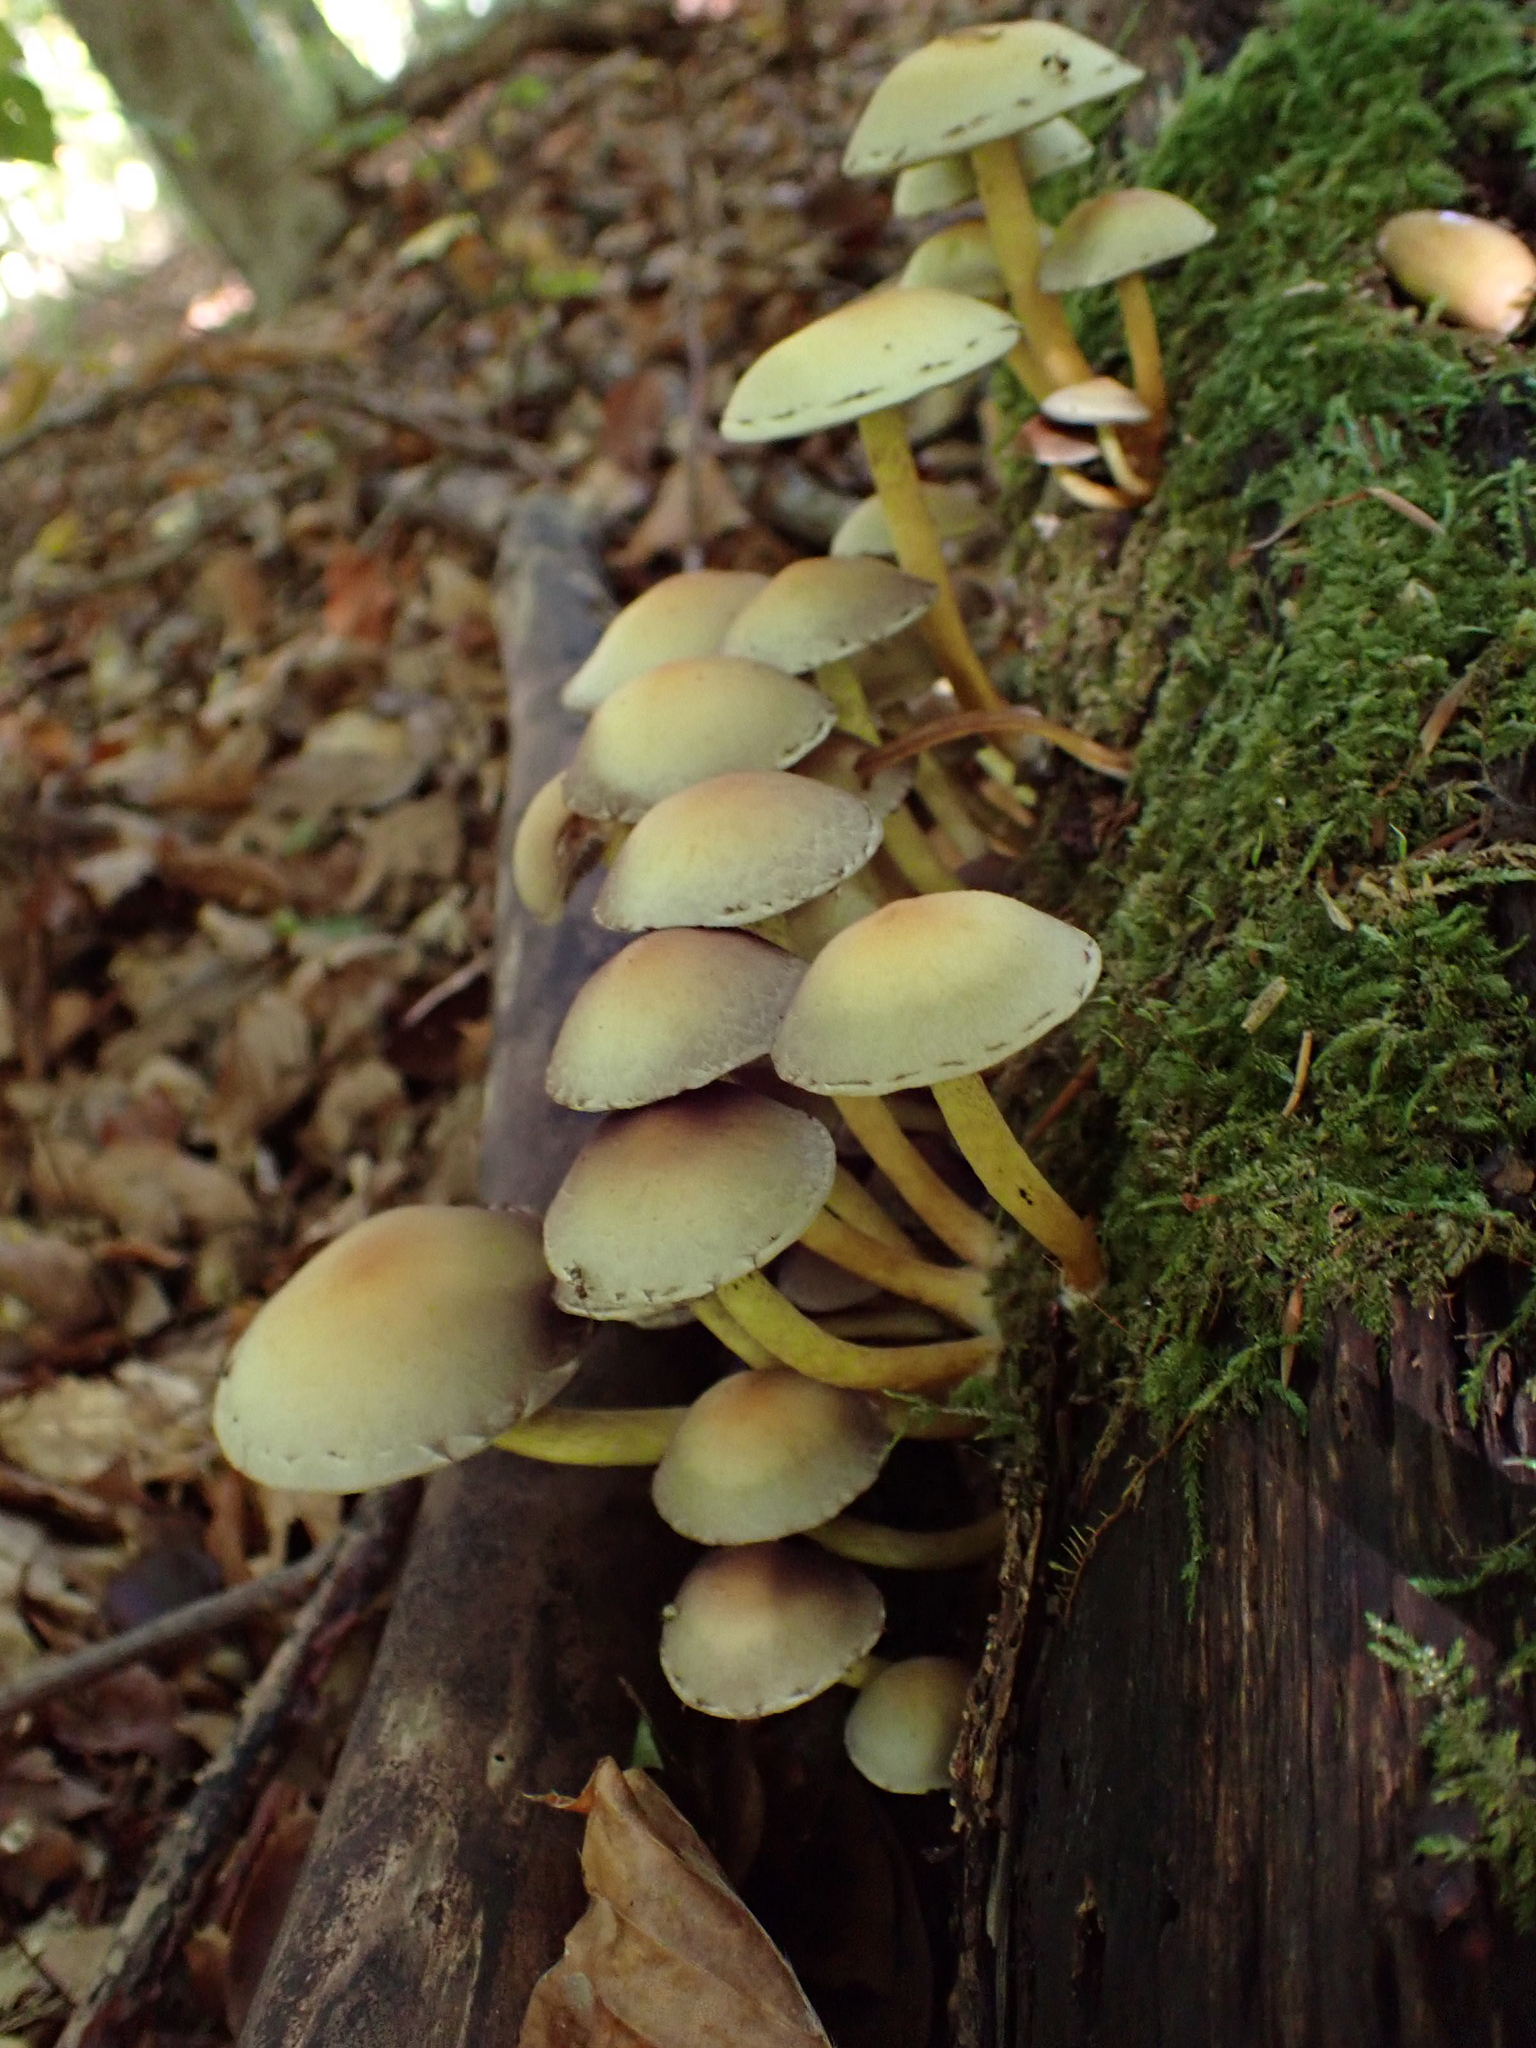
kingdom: Fungi
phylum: Basidiomycota
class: Agaricomycetes
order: Agaricales
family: Strophariaceae
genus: Hypholoma
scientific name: Hypholoma fasciculare
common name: Sulphur tuft
